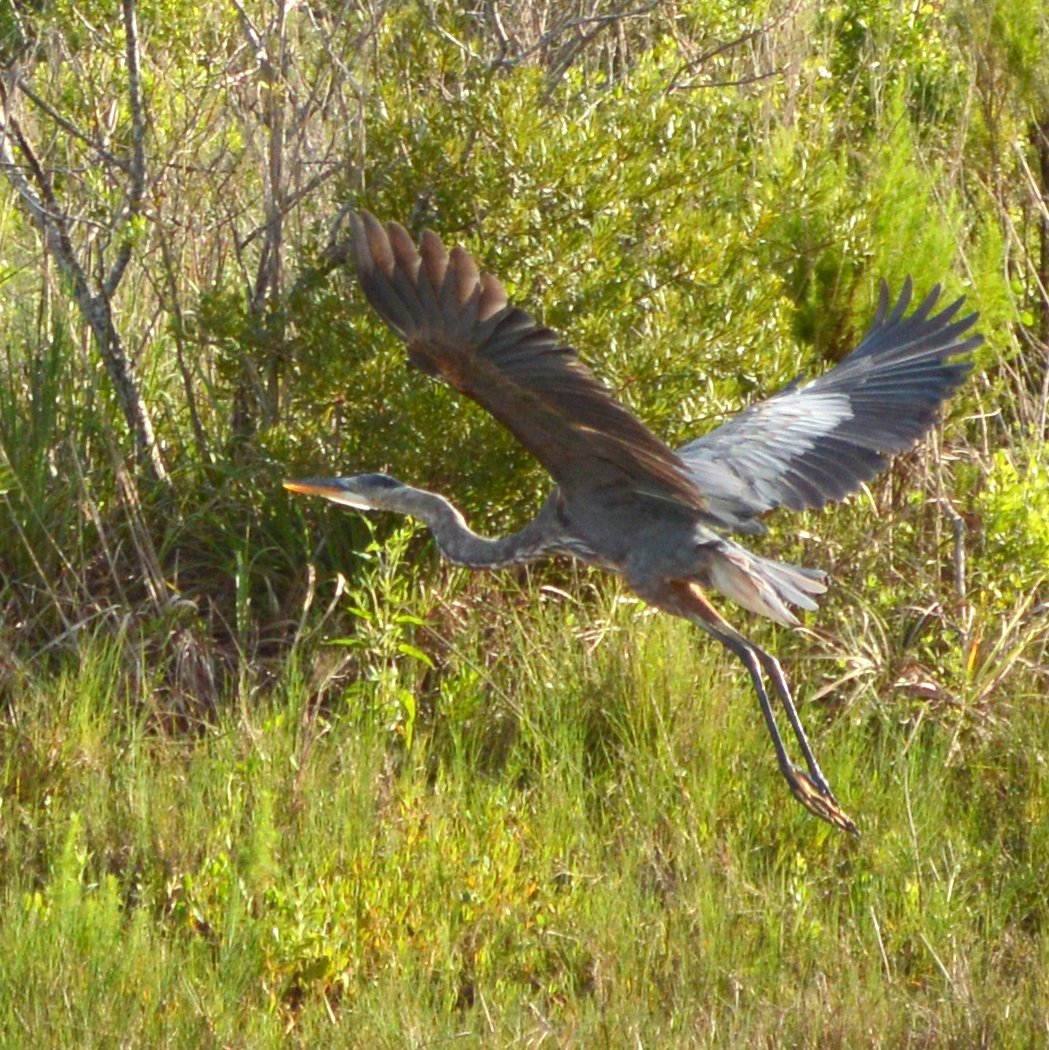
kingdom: Animalia
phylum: Chordata
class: Aves
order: Pelecaniformes
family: Ardeidae
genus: Ardea
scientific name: Ardea herodias
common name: Great blue heron
